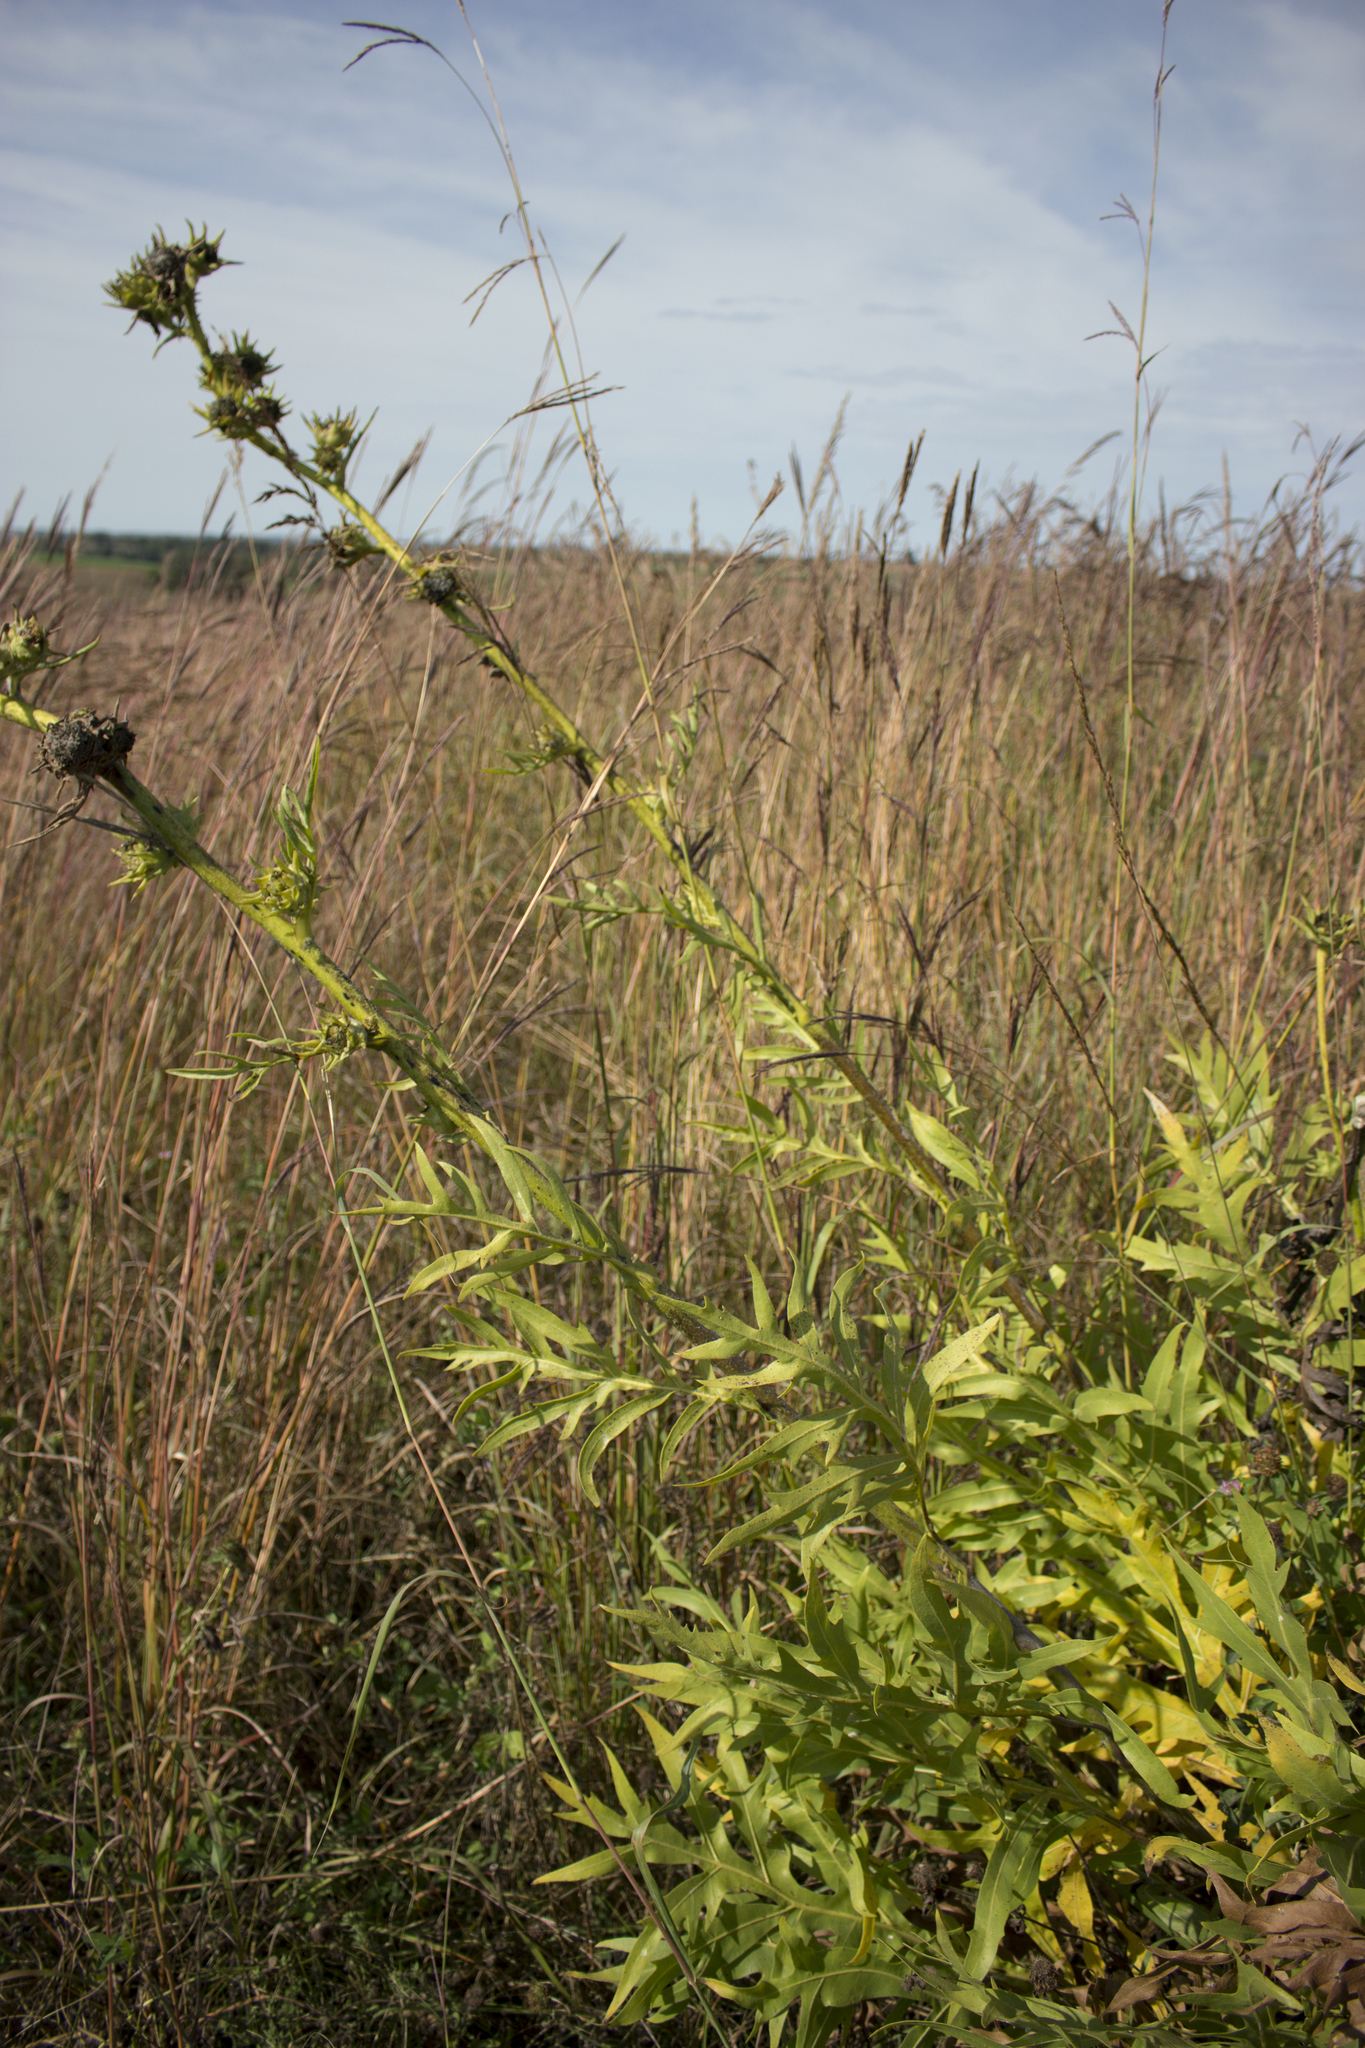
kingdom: Plantae
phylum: Tracheophyta
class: Magnoliopsida
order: Asterales
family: Asteraceae
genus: Silphium
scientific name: Silphium laciniatum
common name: Polarplant
